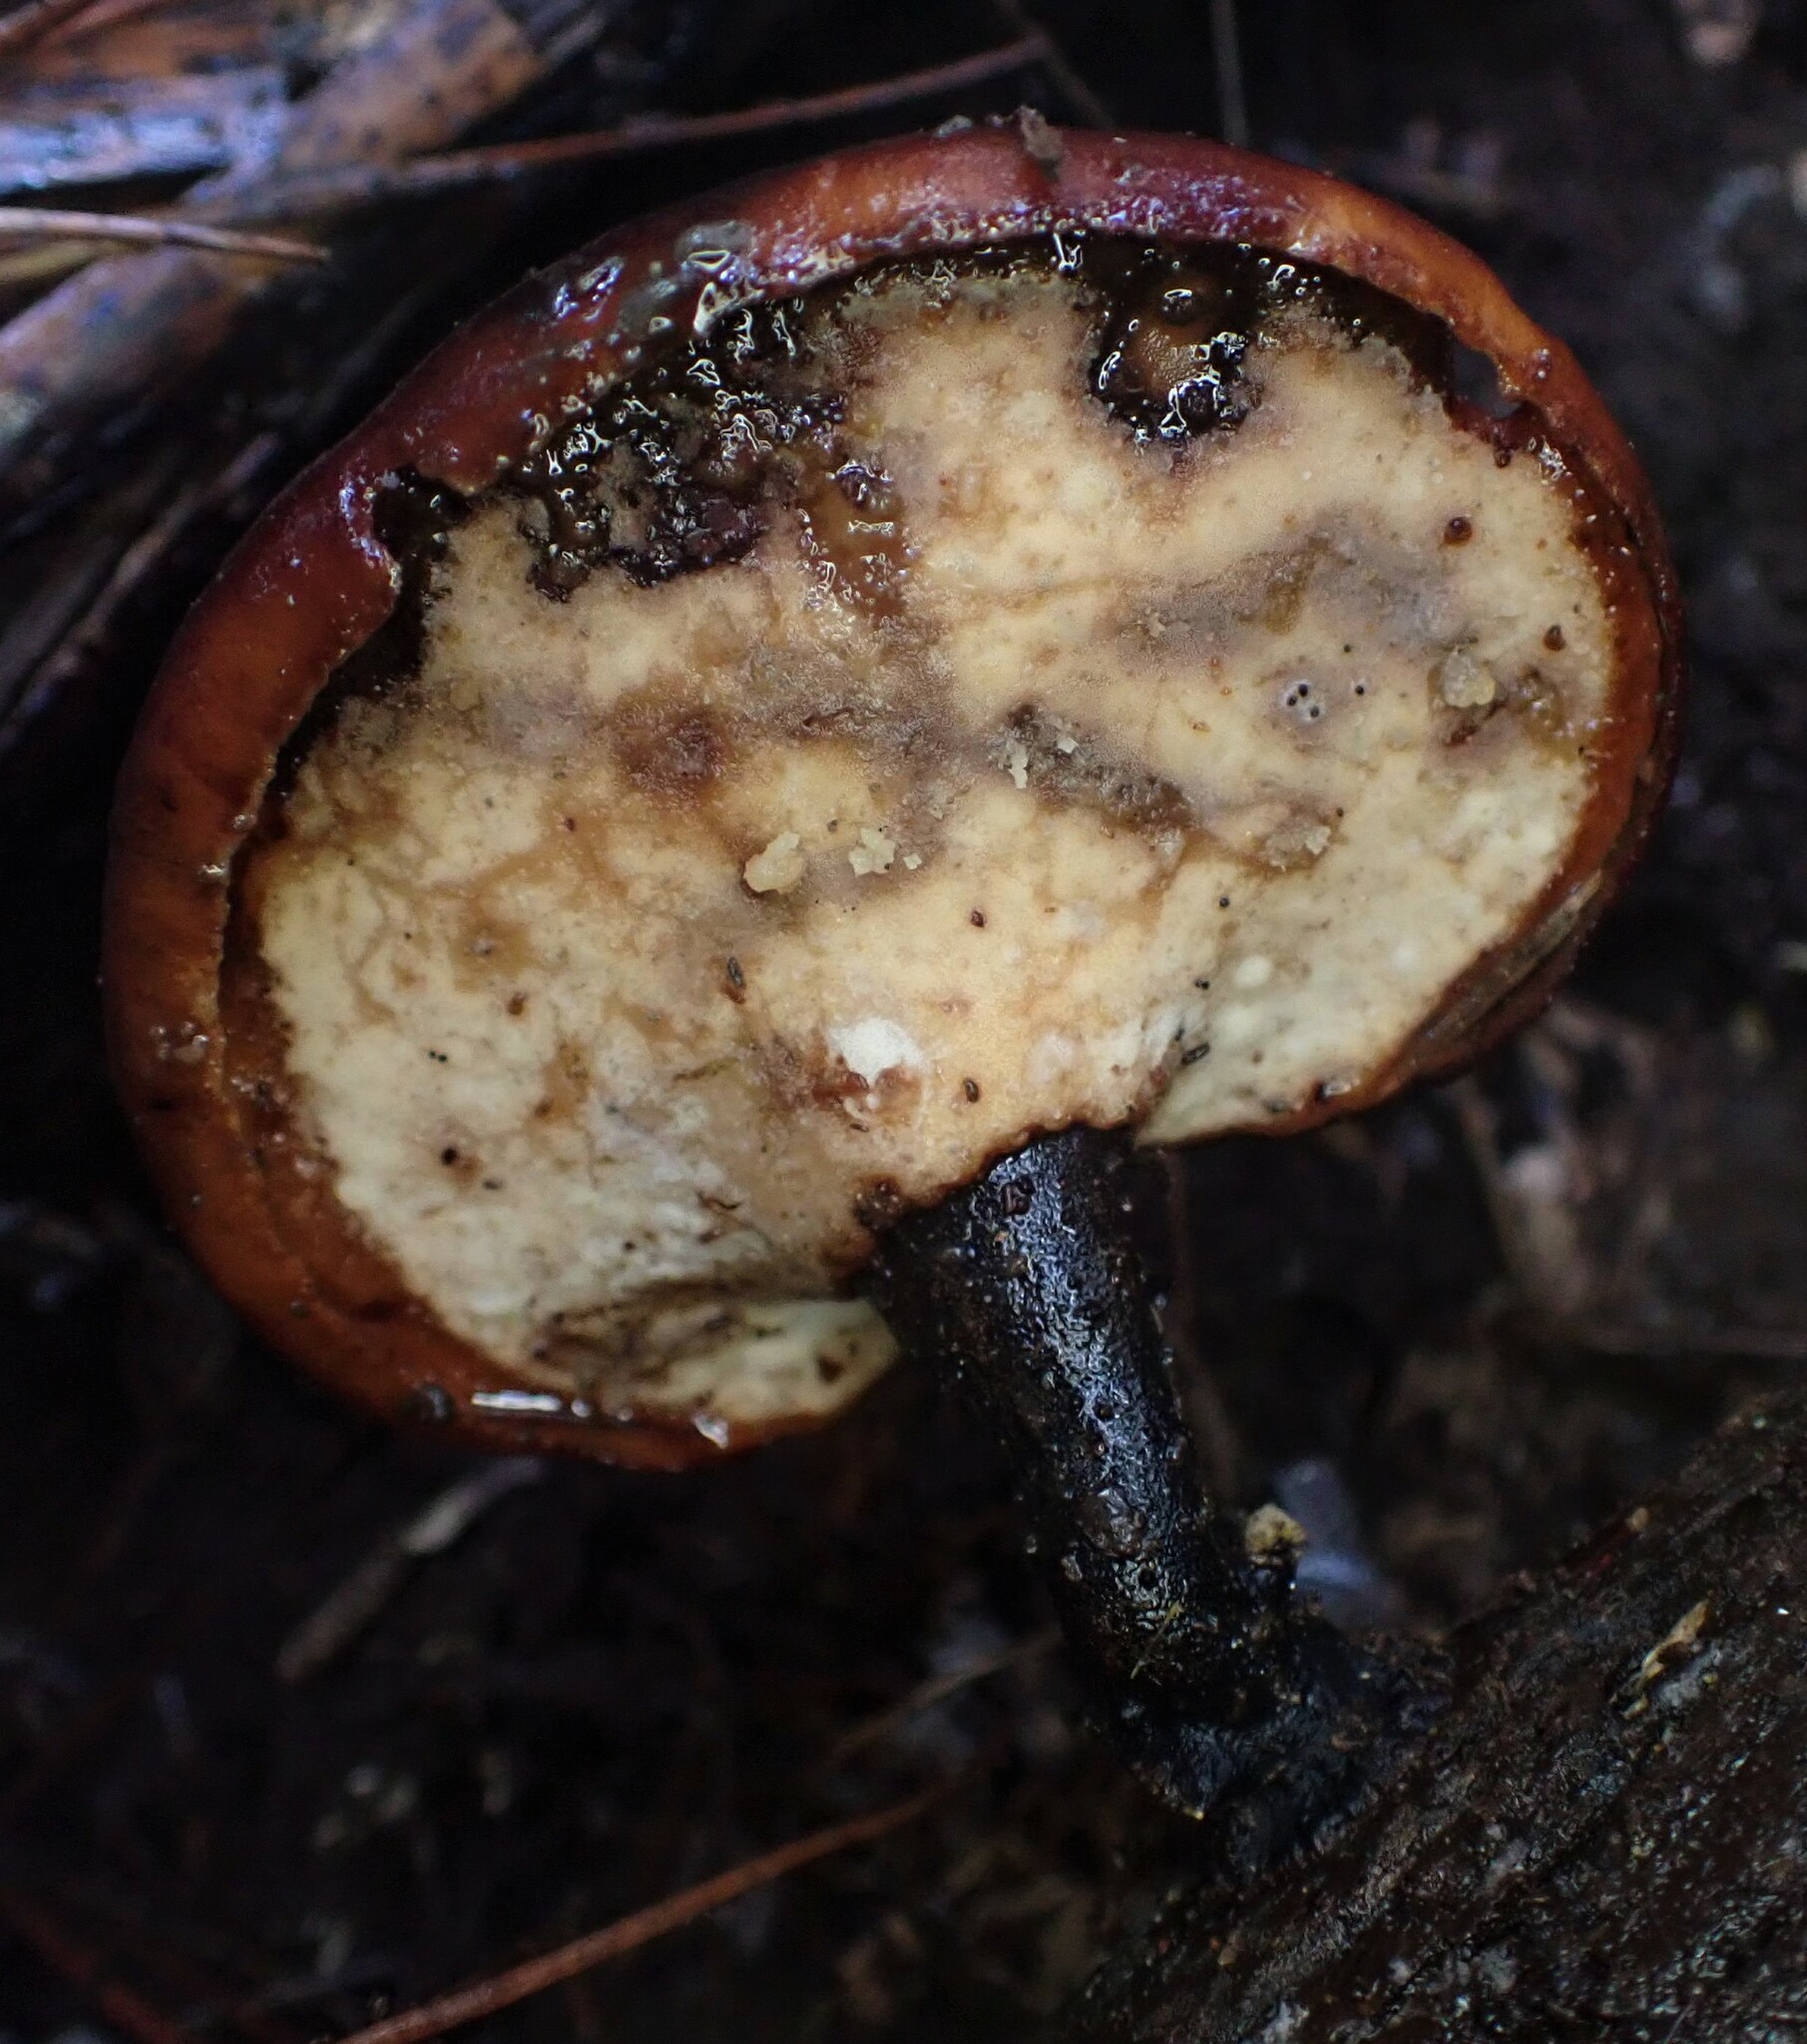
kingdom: Fungi
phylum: Basidiomycota
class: Agaricomycetes
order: Polyporales
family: Polyporaceae
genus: Picipes
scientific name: Picipes melanopus
